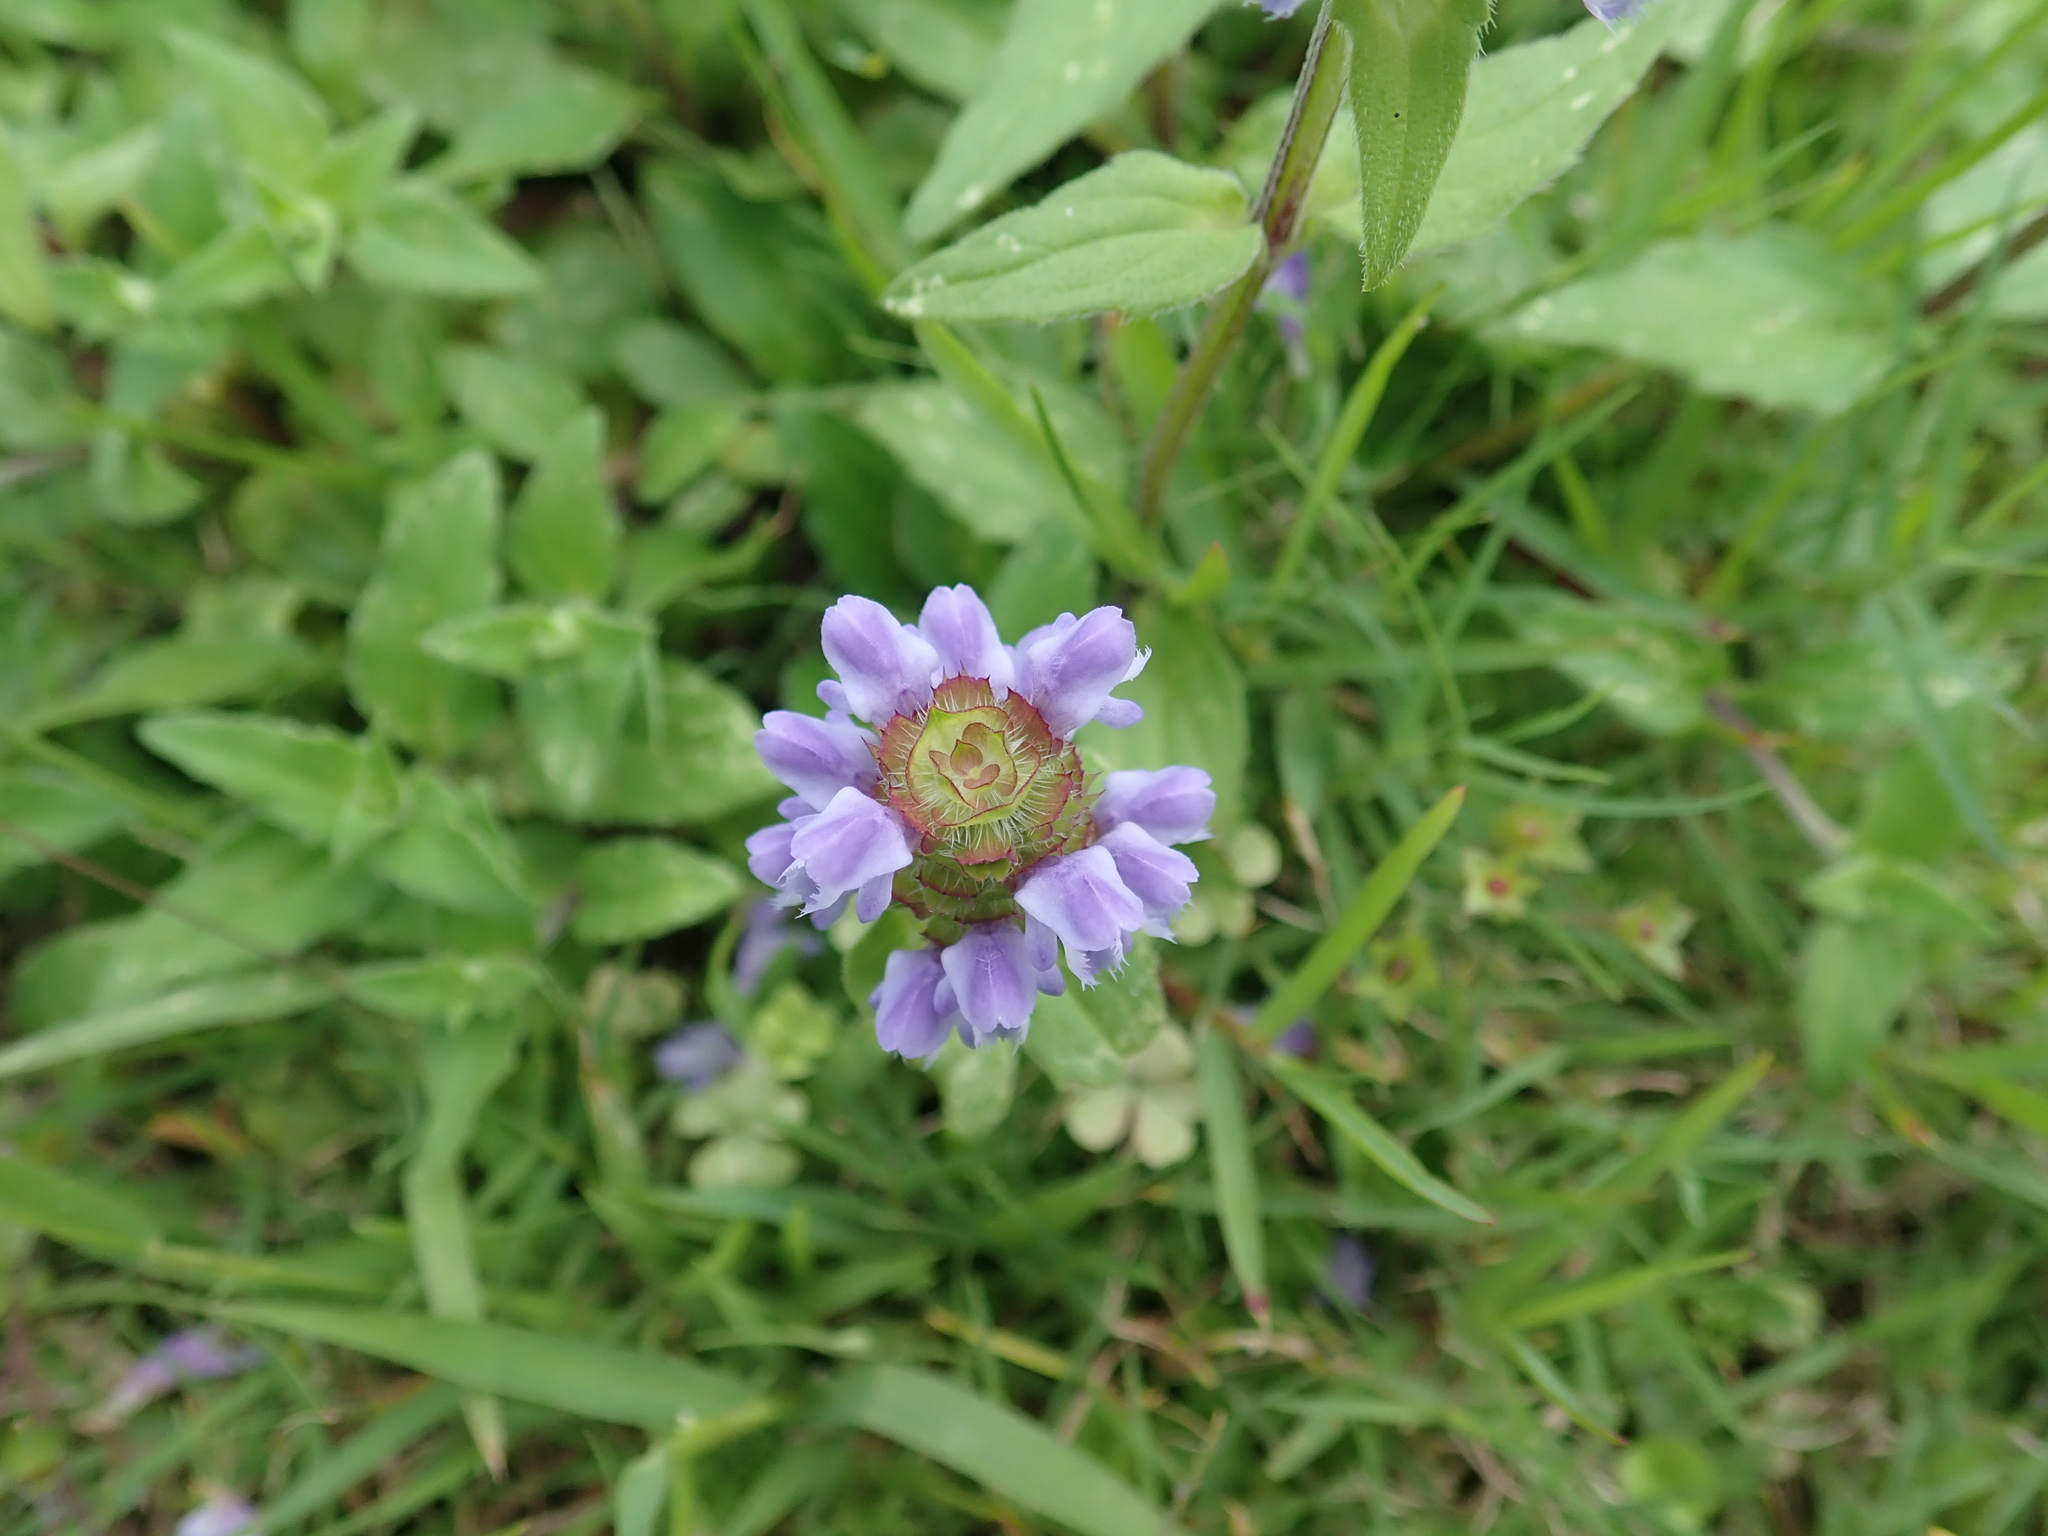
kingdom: Plantae
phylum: Tracheophyta
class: Magnoliopsida
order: Lamiales
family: Lamiaceae
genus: Prunella
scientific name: Prunella vulgaris
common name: Heal-all
